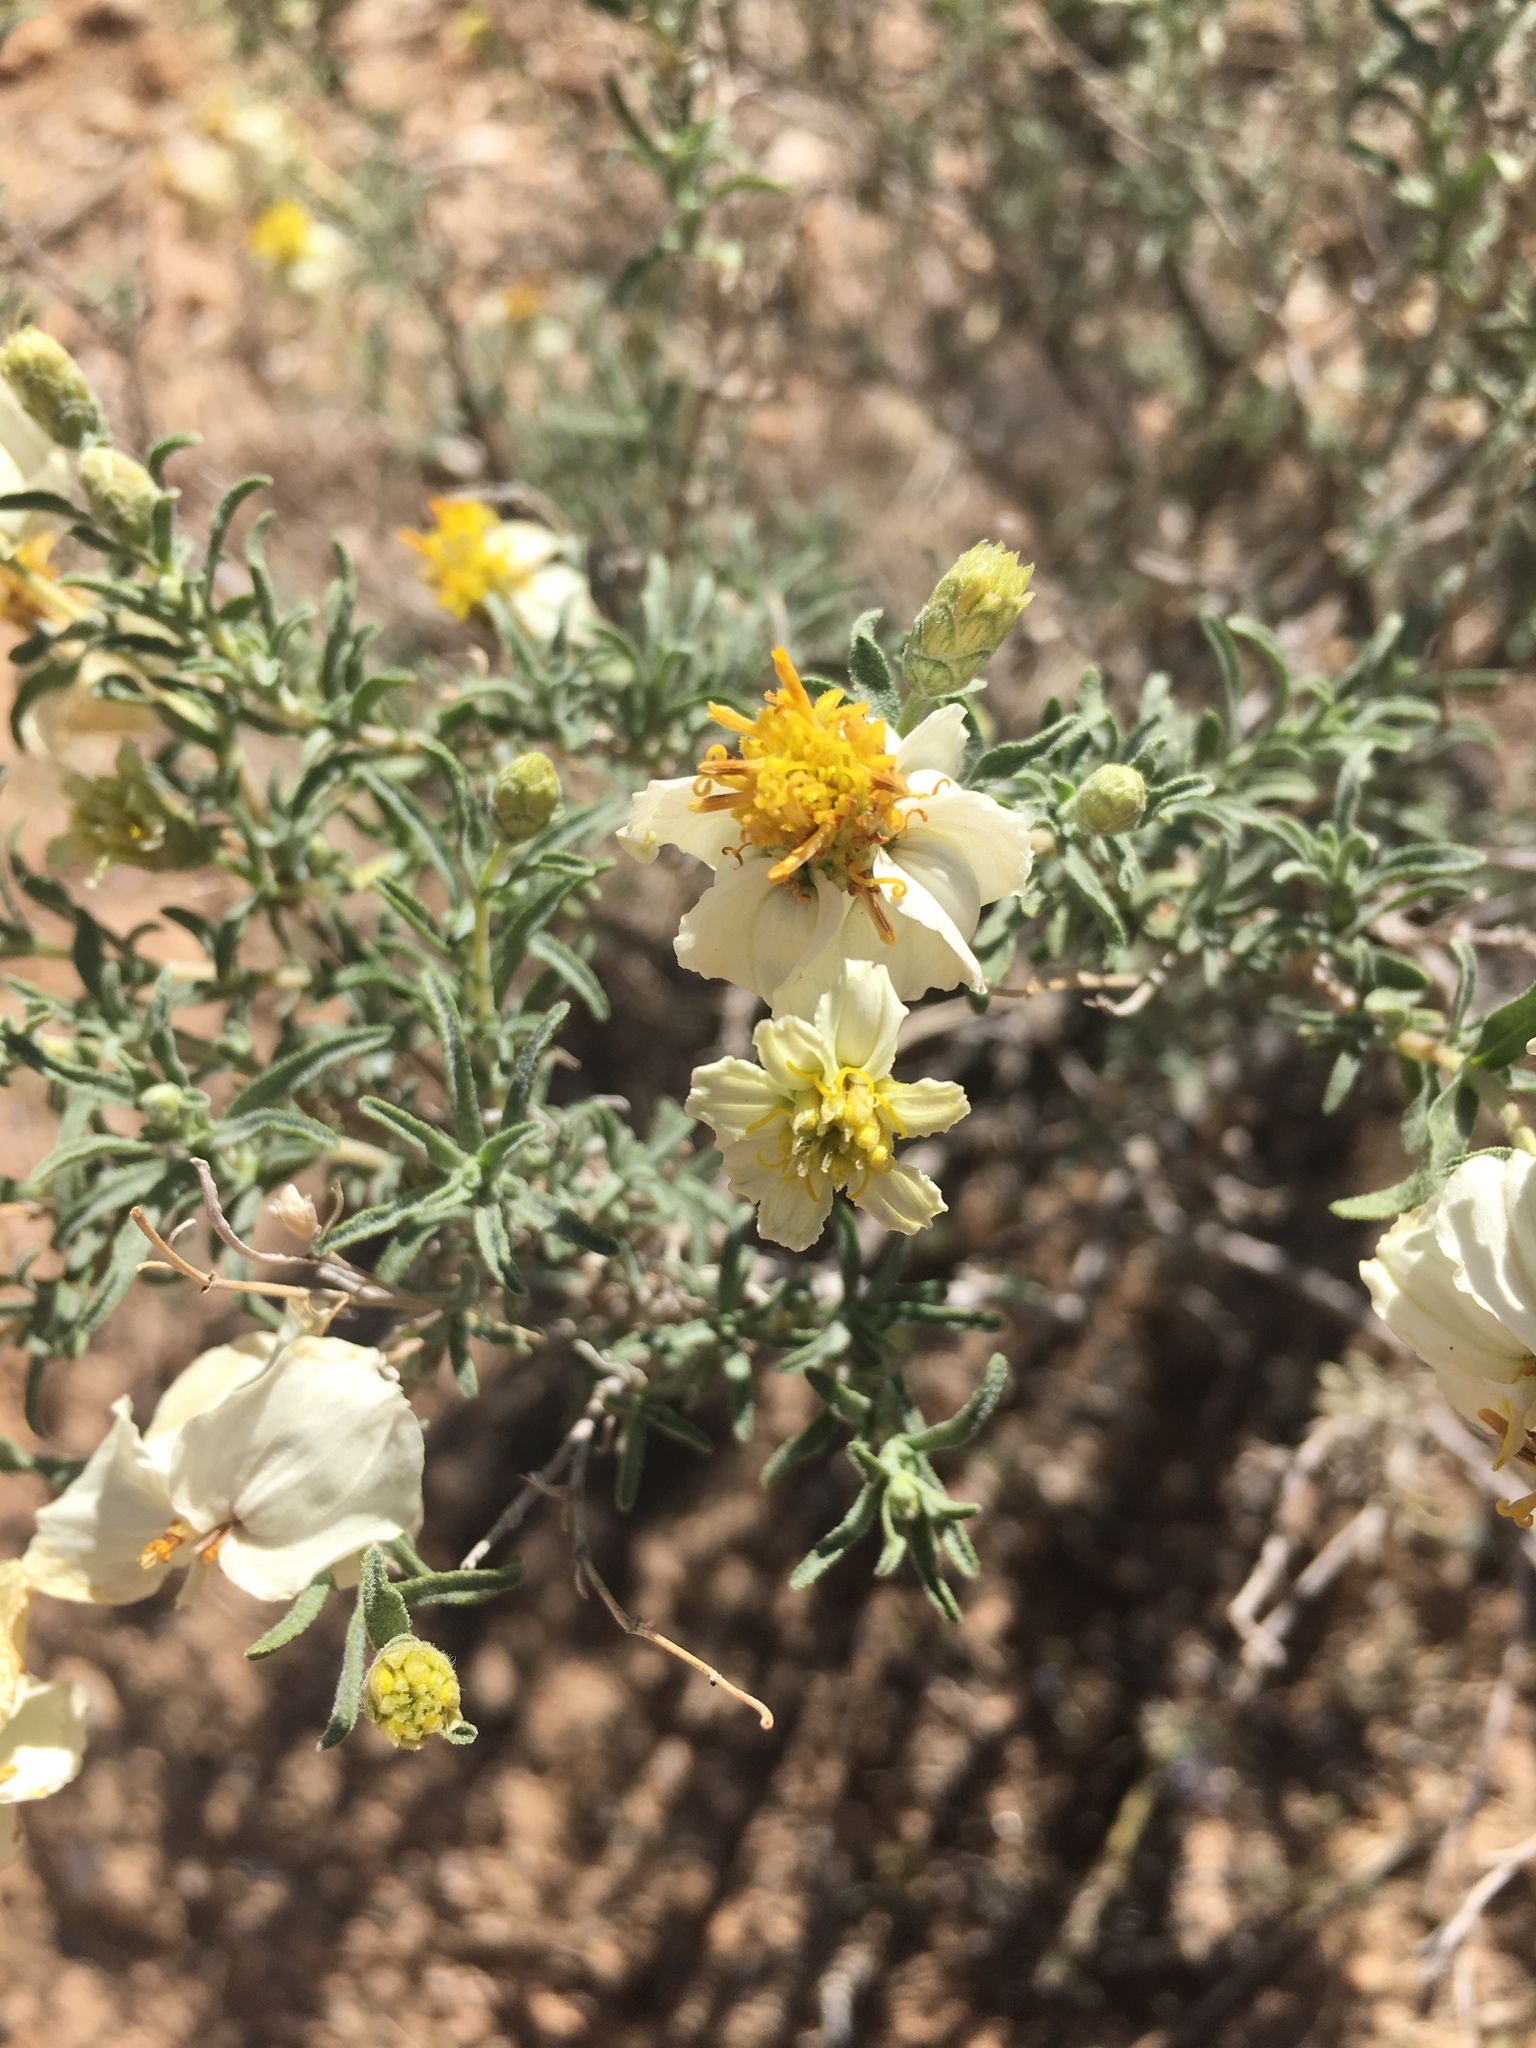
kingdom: Plantae
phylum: Tracheophyta
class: Magnoliopsida
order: Asterales
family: Asteraceae
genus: Zinnia
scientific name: Zinnia acerosa
